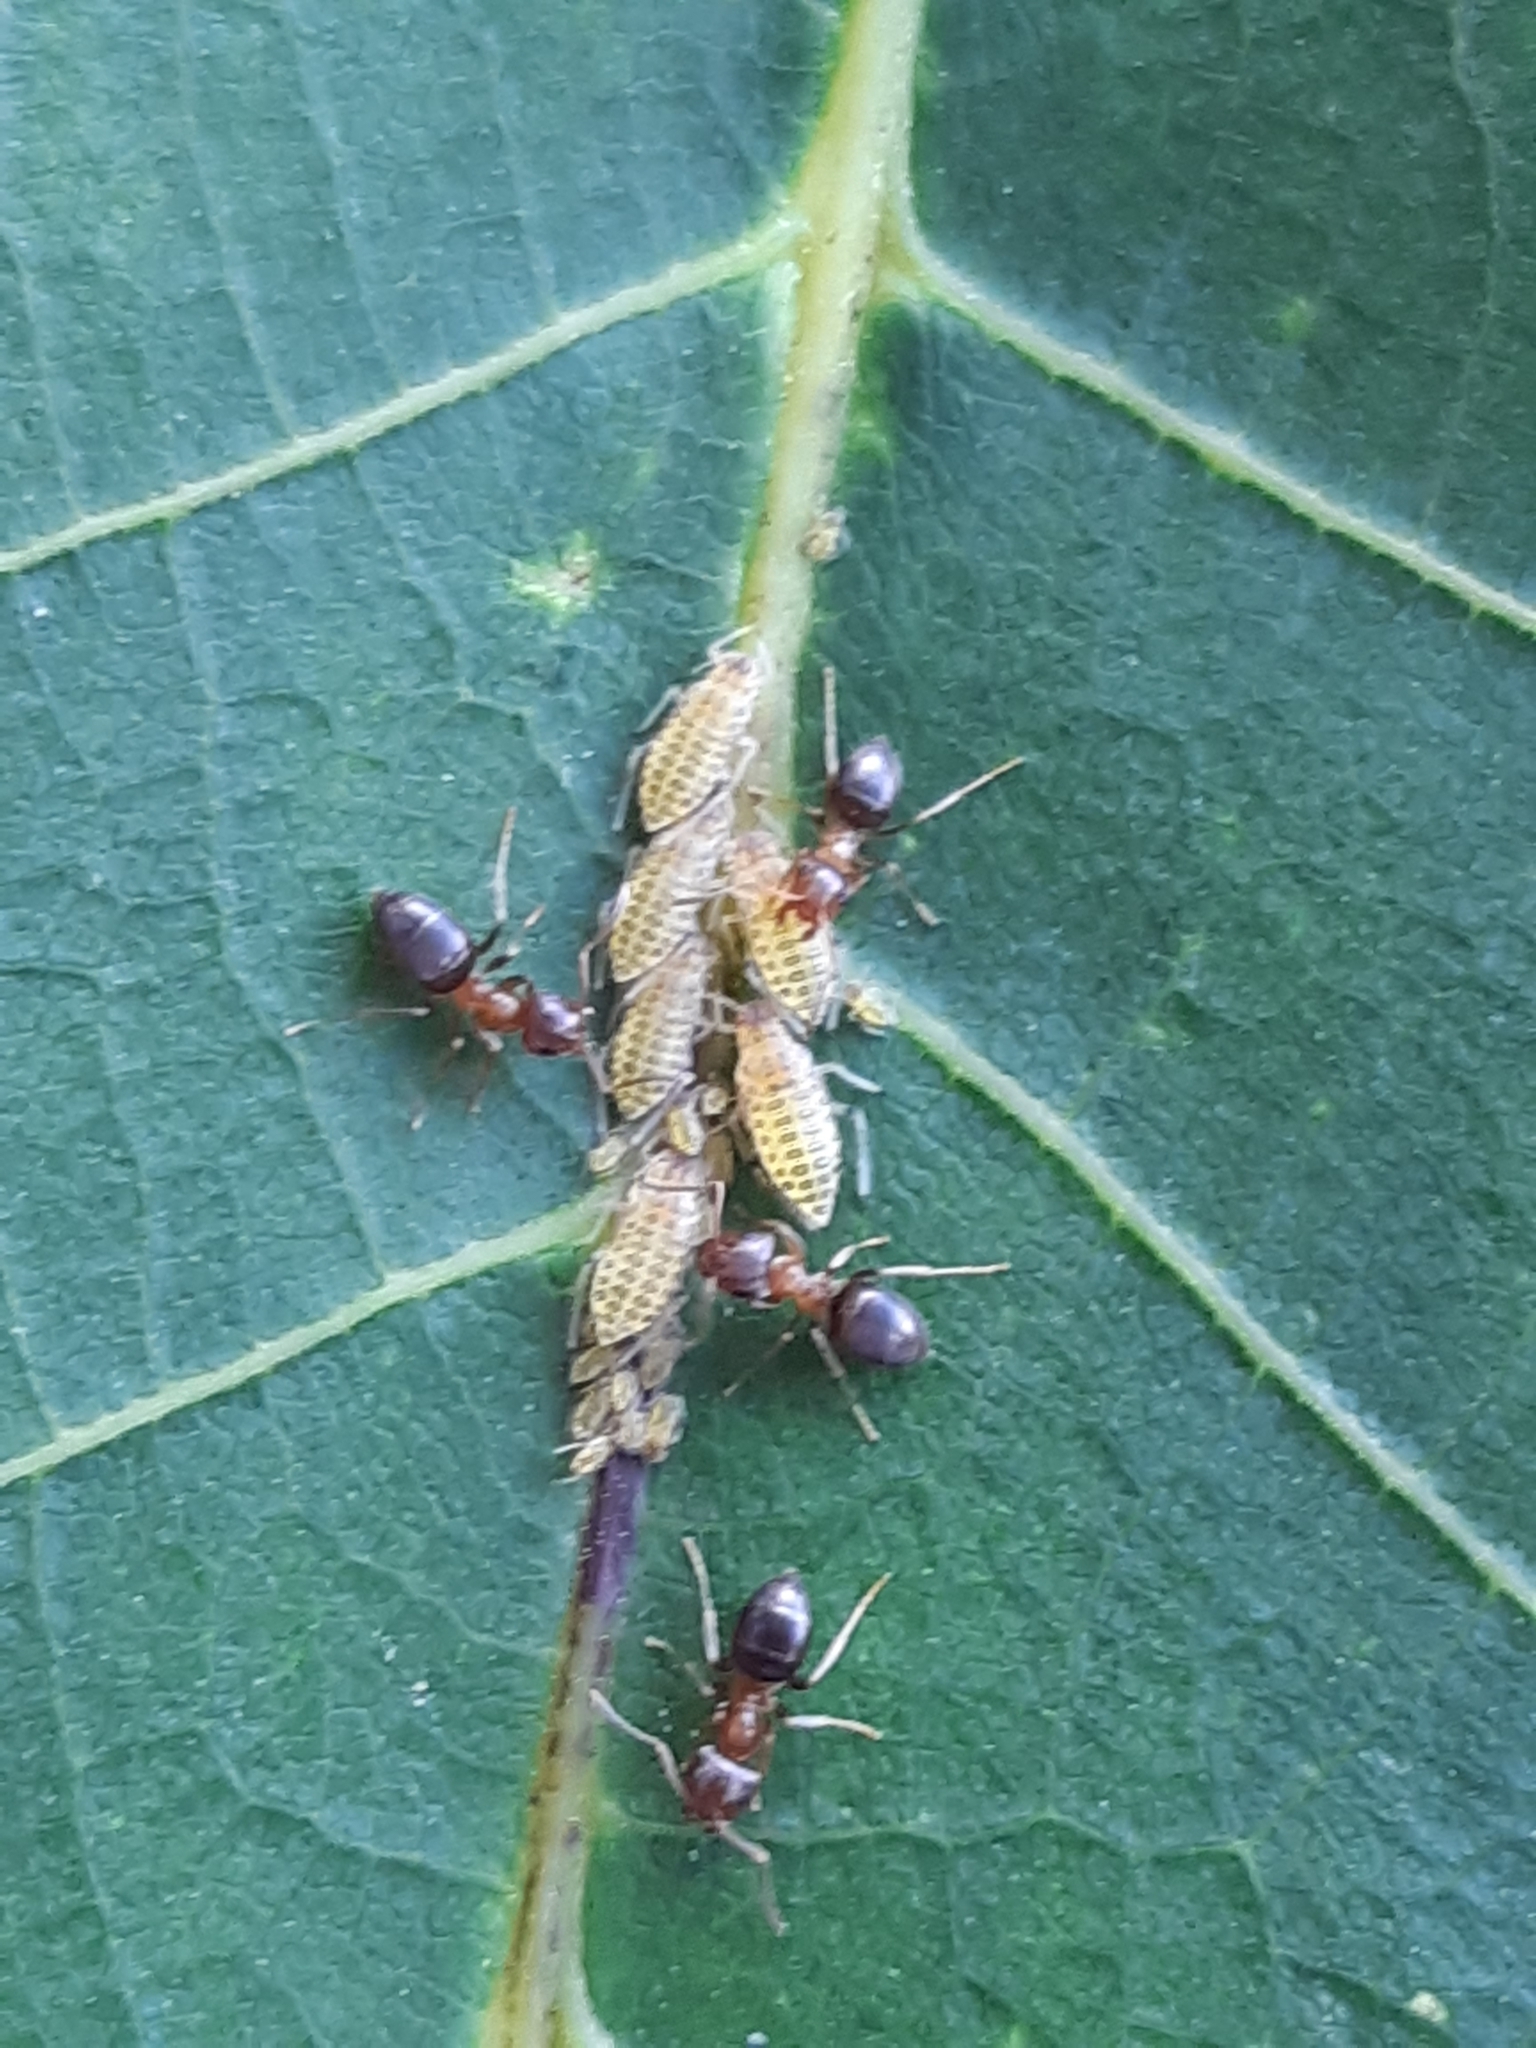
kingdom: Animalia
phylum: Arthropoda
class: Insecta
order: Hemiptera
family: Aphididae
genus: Panaphis
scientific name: Panaphis juglandis
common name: Large walnut aphid
